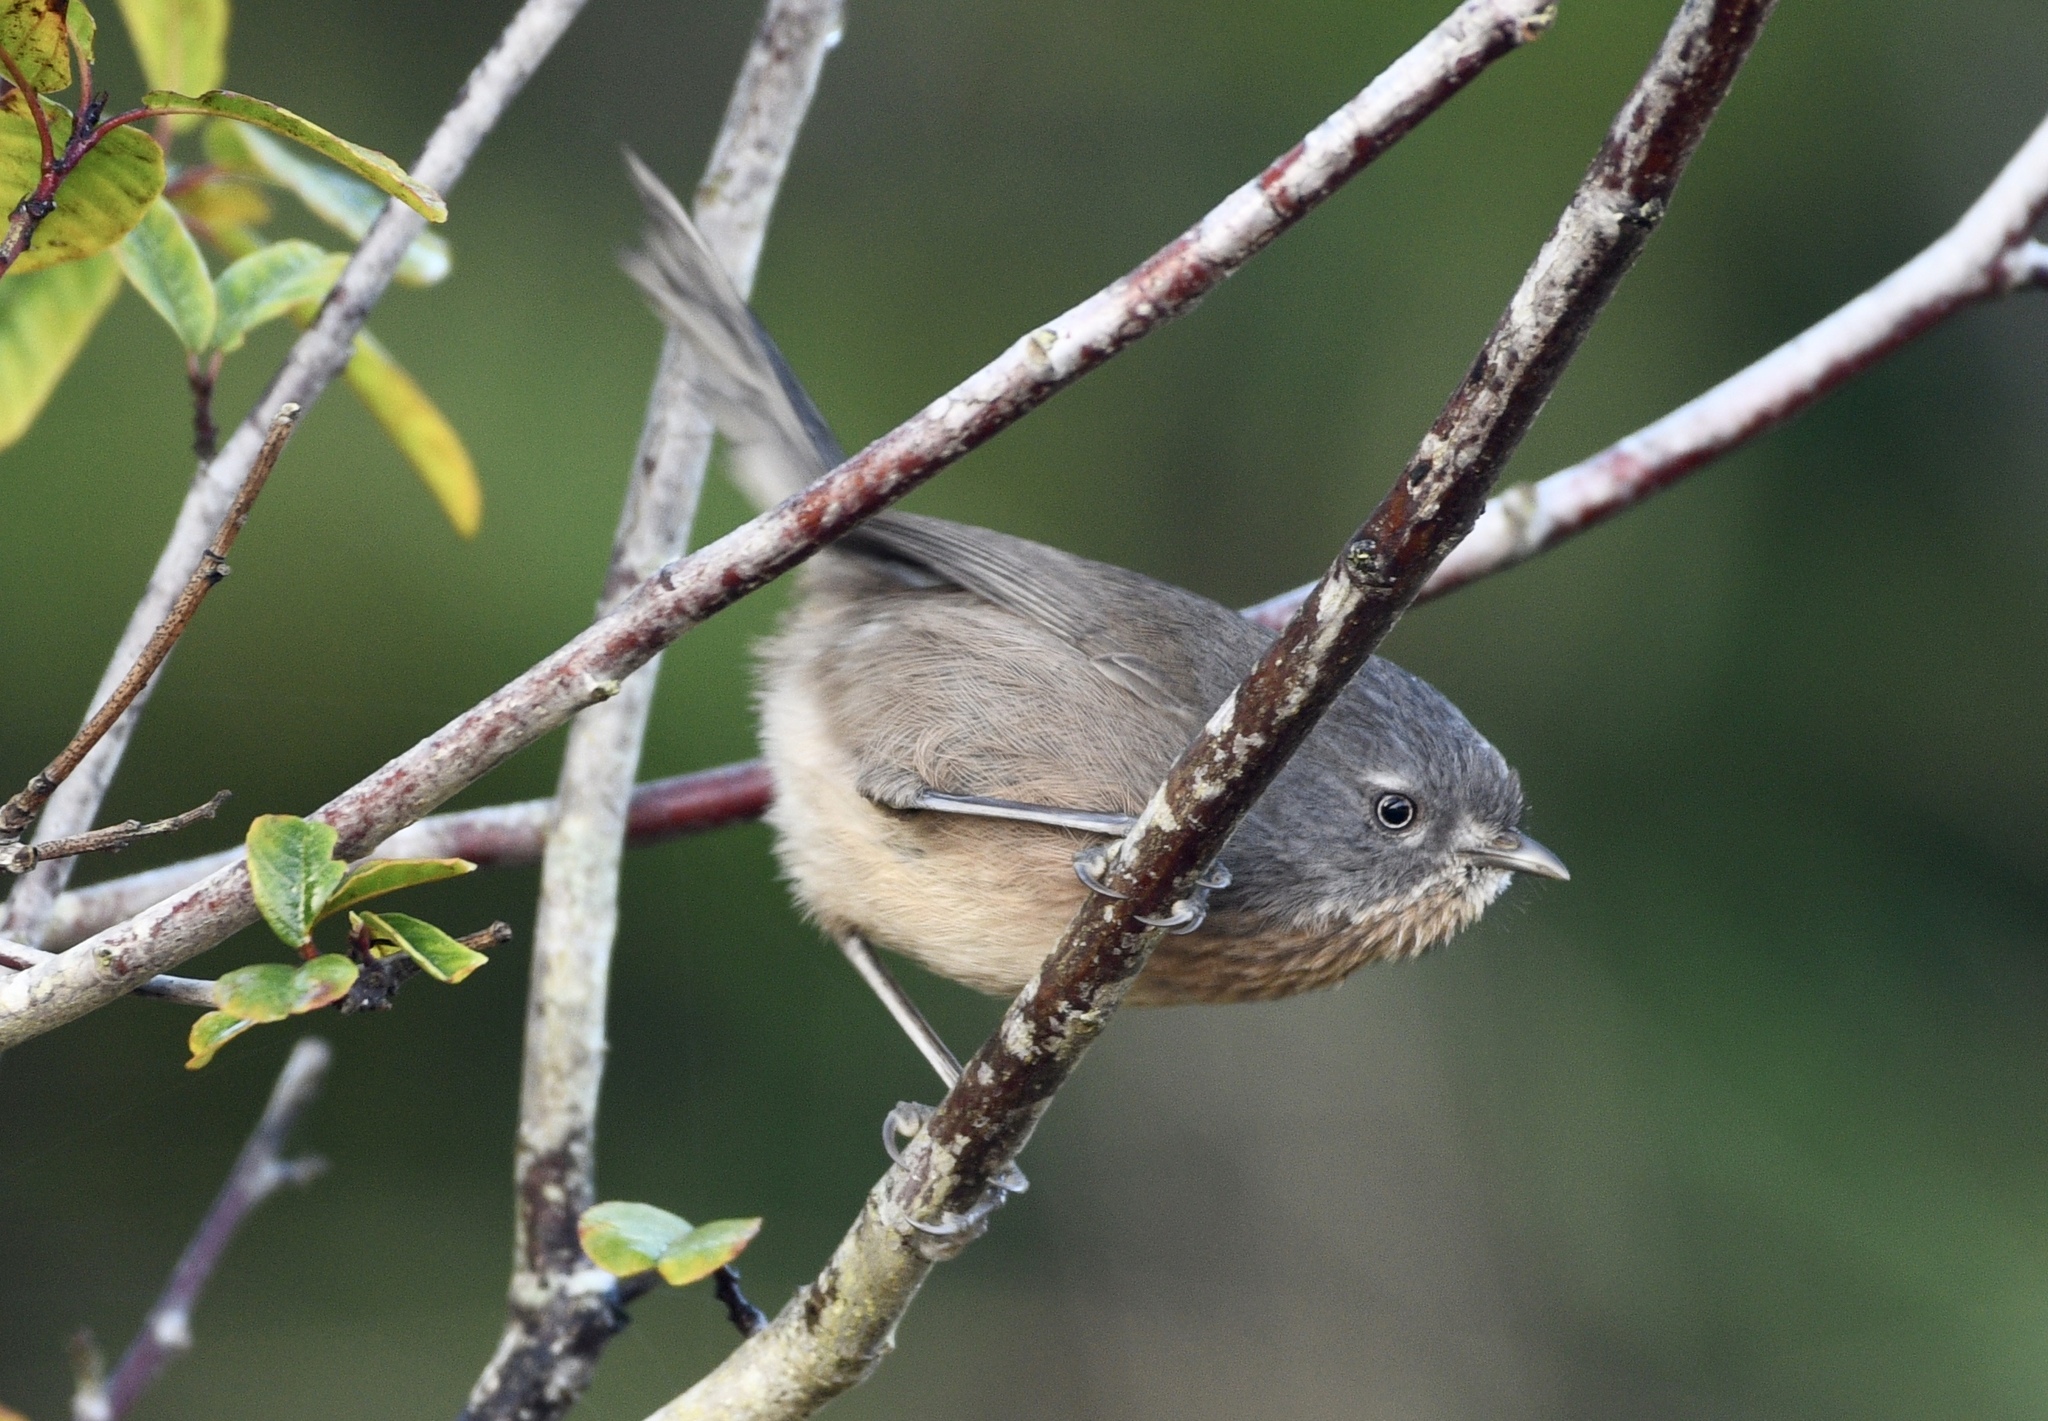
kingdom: Animalia
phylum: Chordata
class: Aves
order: Passeriformes
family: Sylviidae
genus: Chamaea
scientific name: Chamaea fasciata
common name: Wrentit
